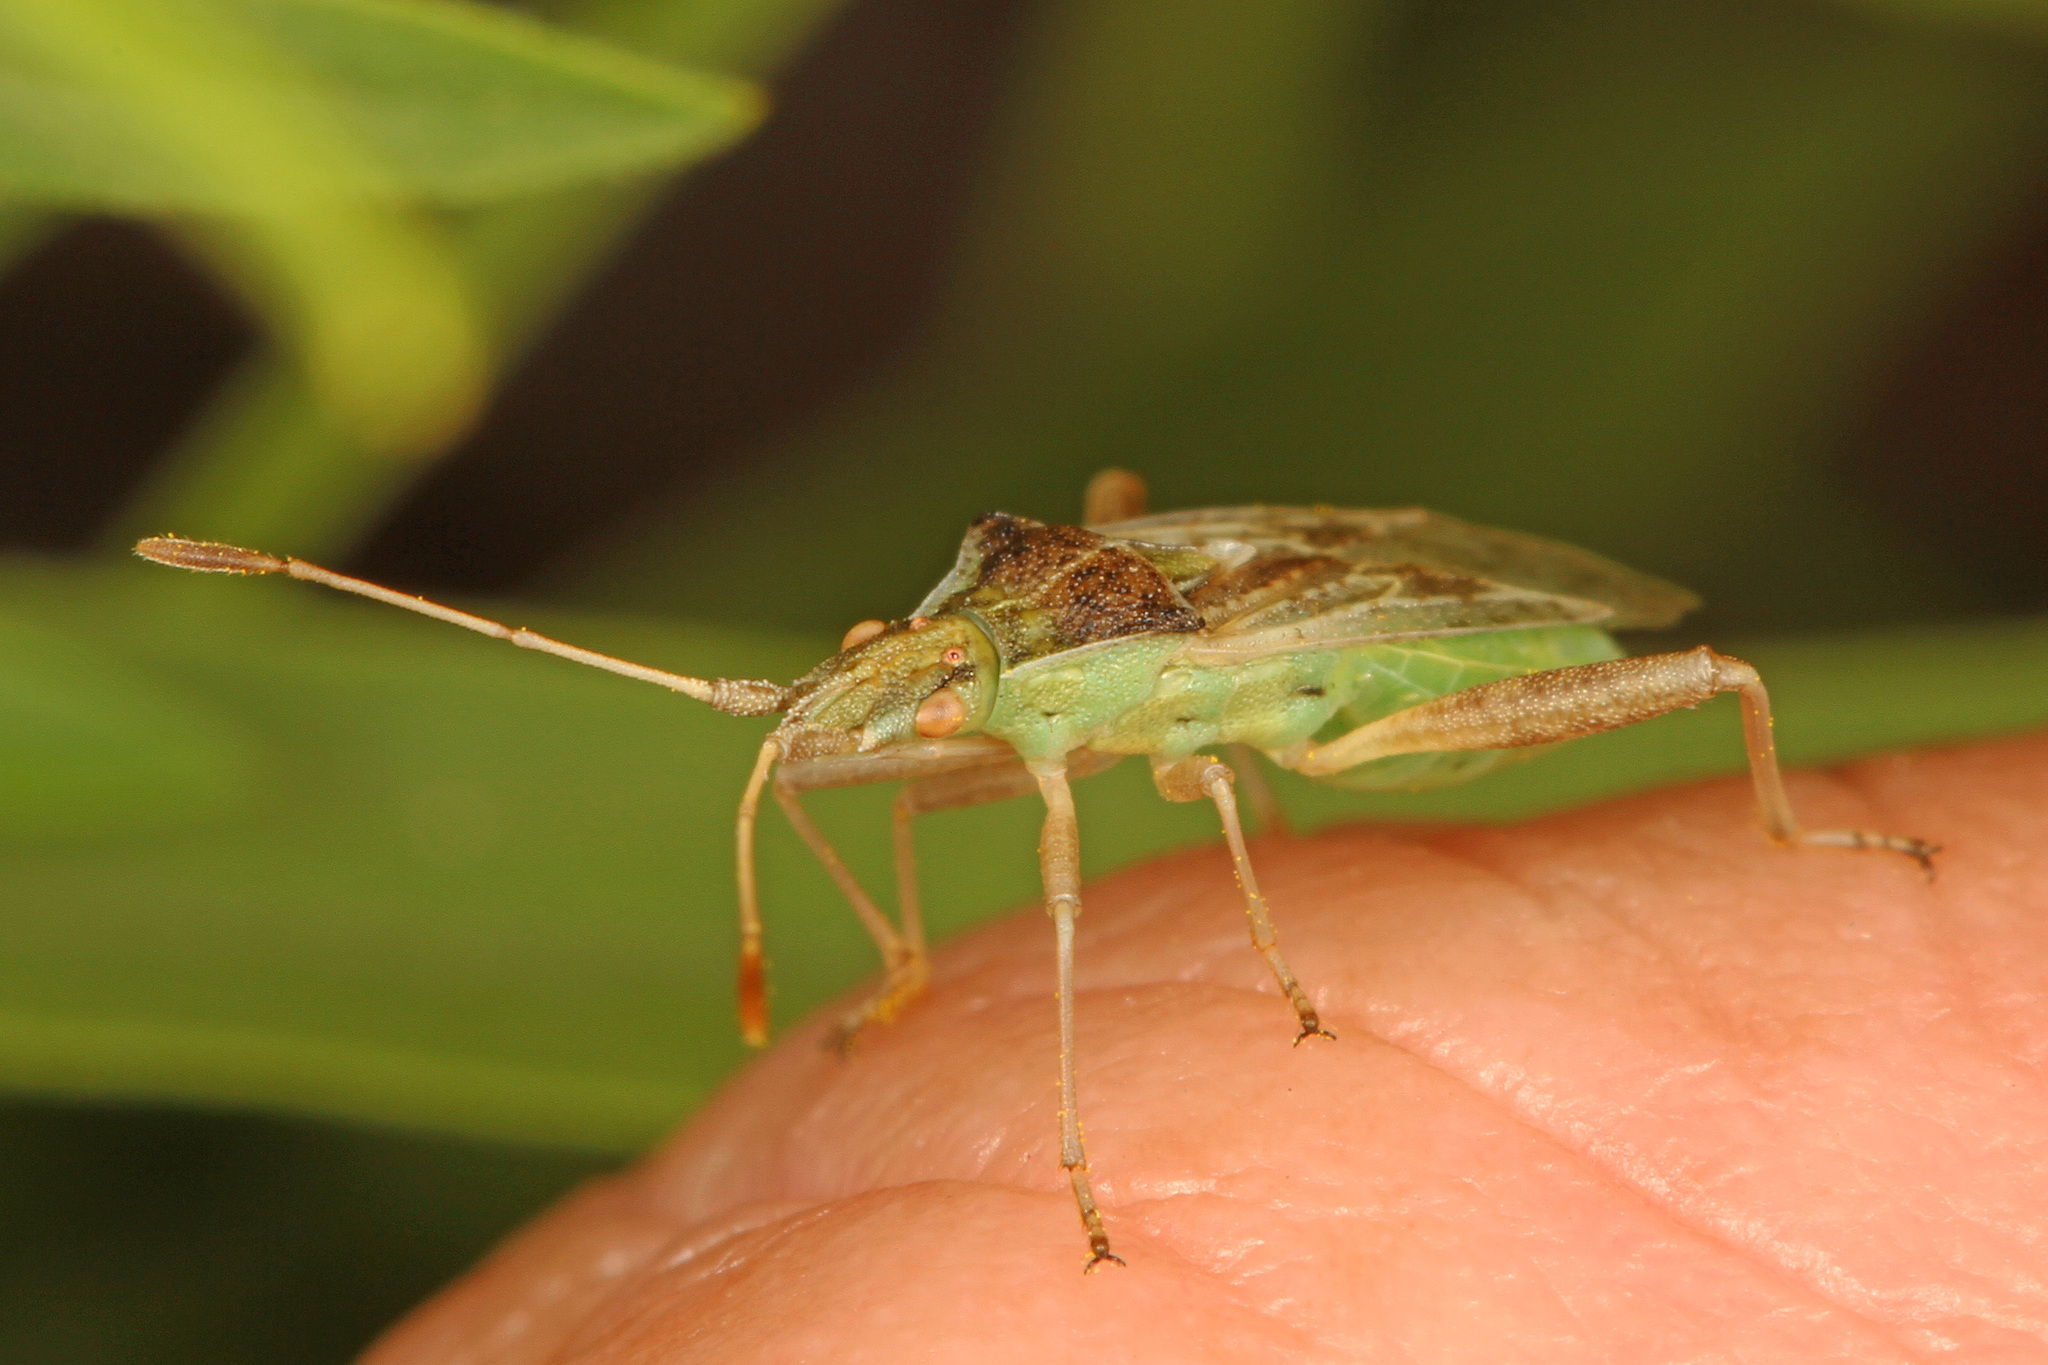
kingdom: Animalia
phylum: Arthropoda
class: Insecta
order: Hemiptera
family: Rhopalidae
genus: Harmostes
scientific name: Harmostes
